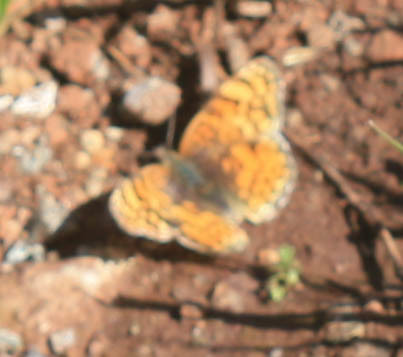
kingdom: Animalia
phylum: Arthropoda
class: Insecta
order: Lepidoptera
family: Nymphalidae
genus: Eresia
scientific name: Eresia aveyrona
